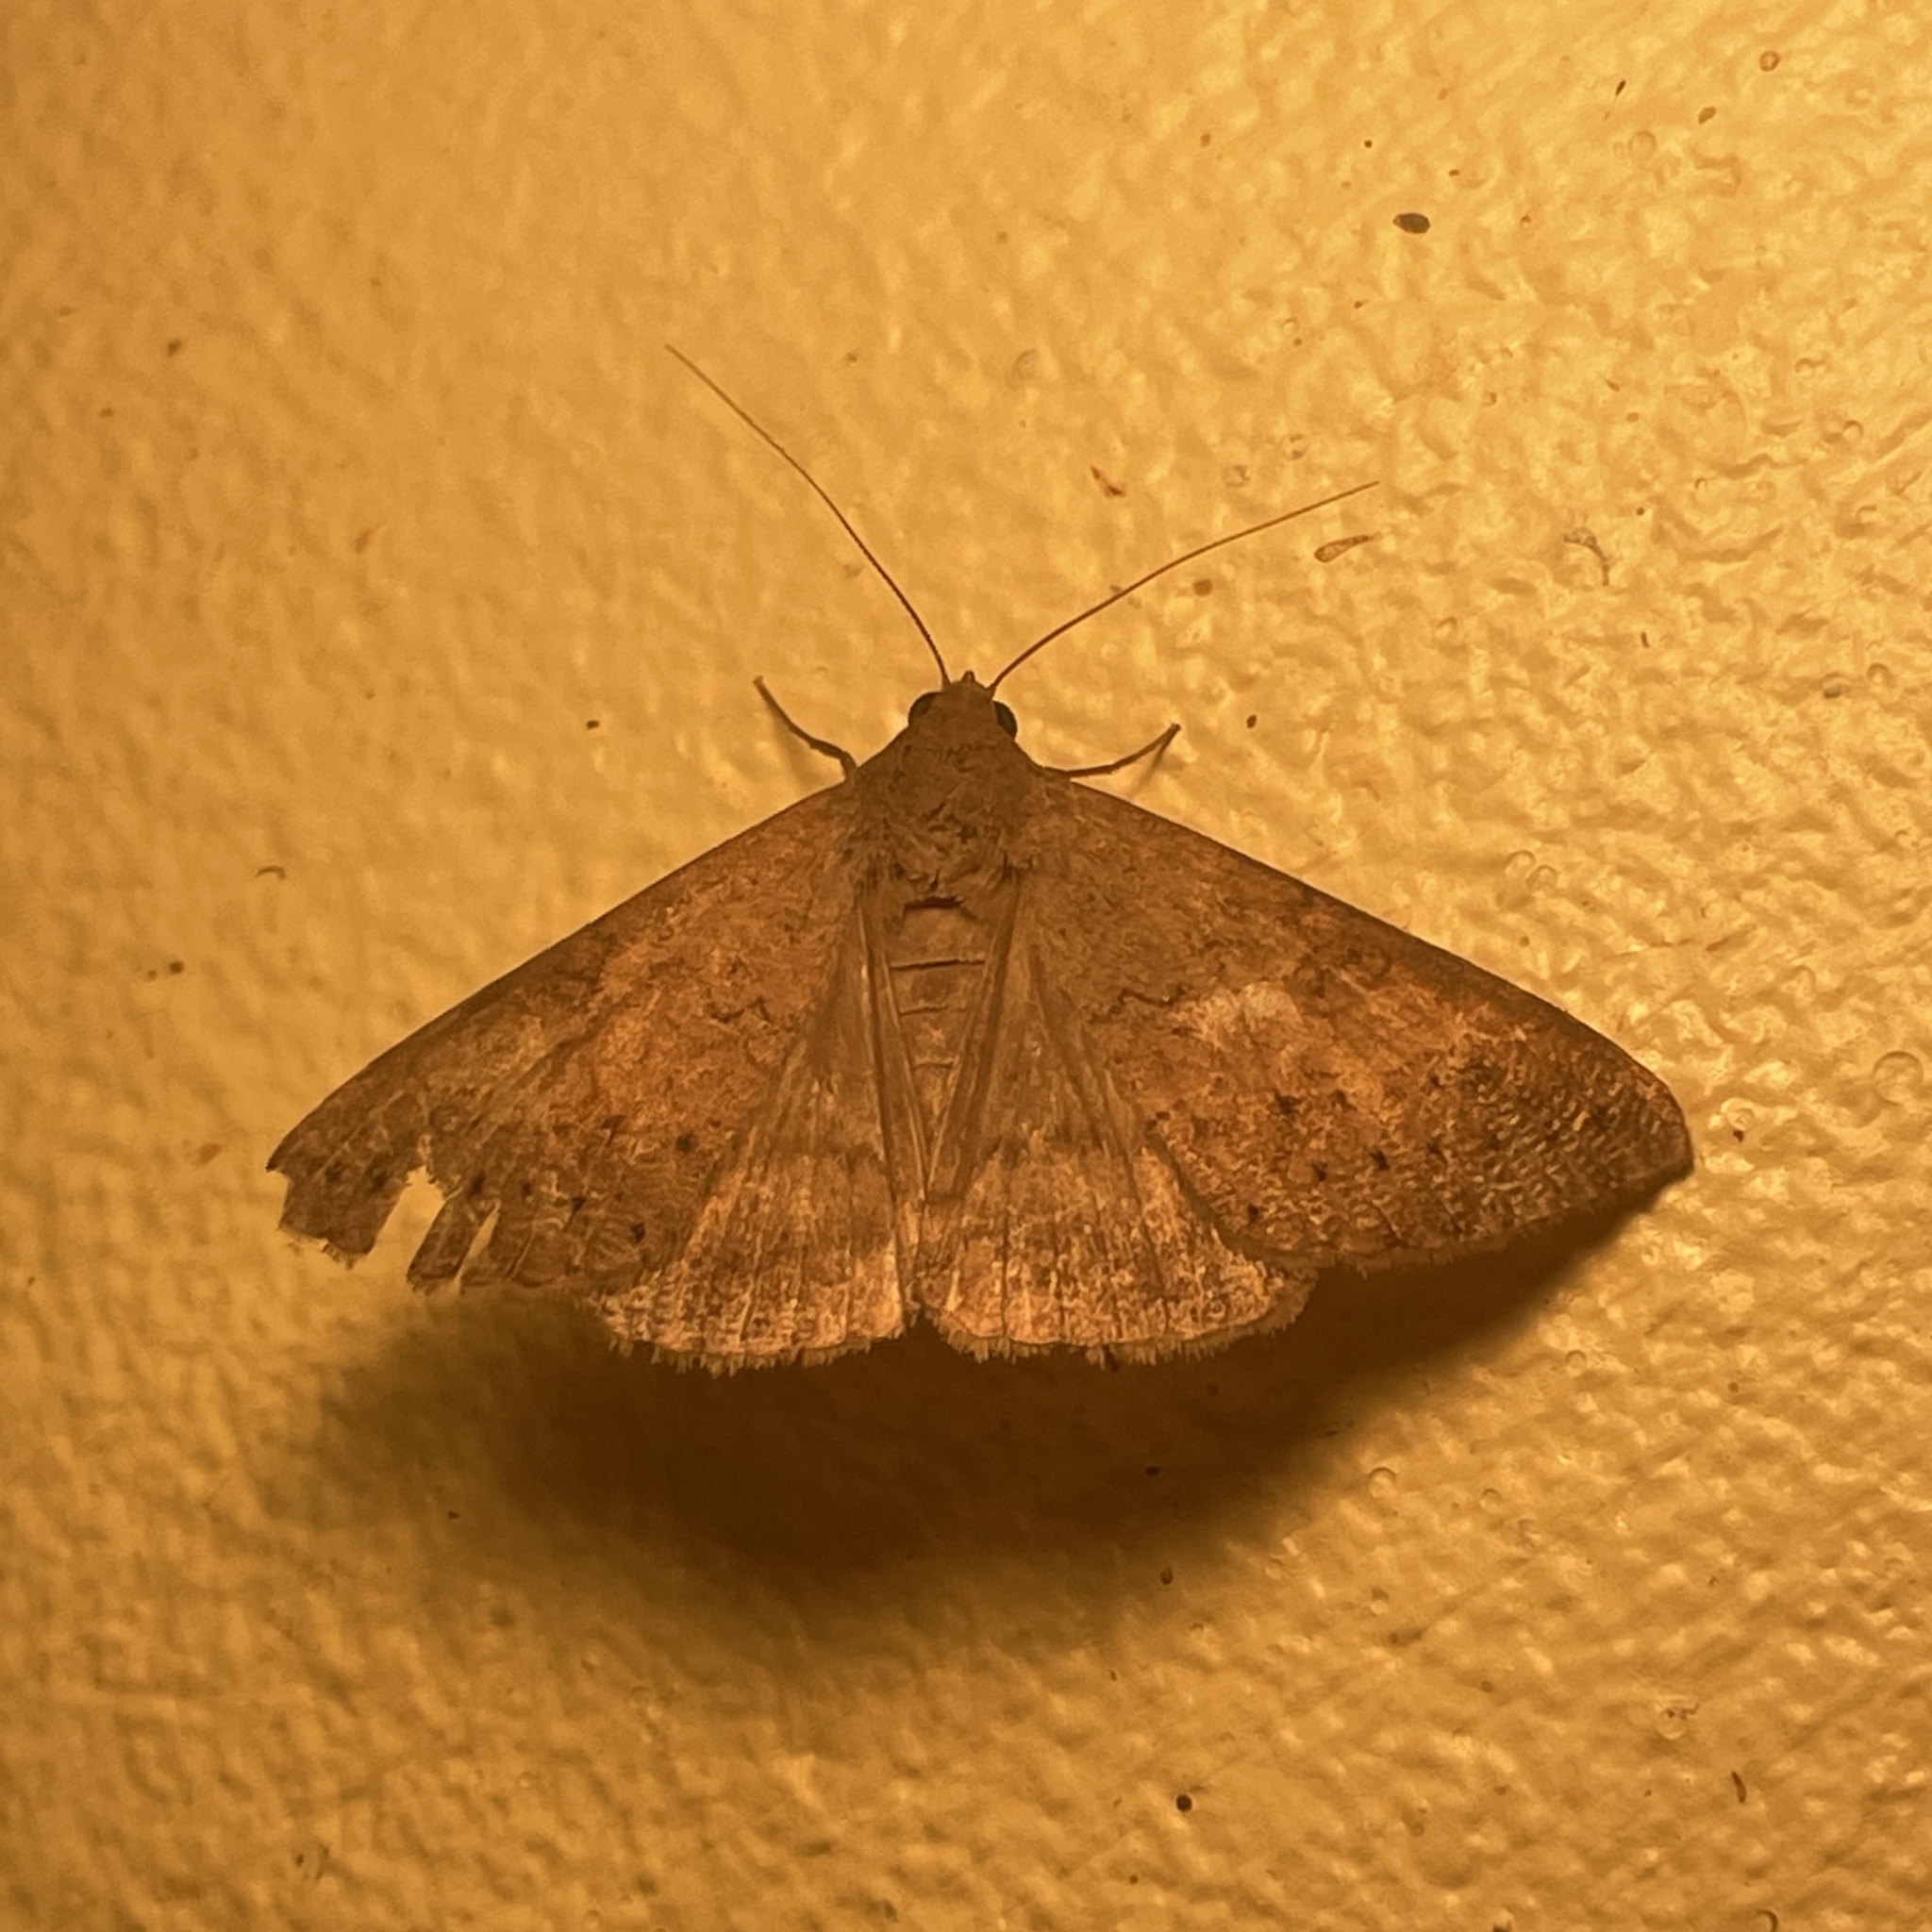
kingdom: Animalia
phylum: Arthropoda
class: Insecta
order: Lepidoptera
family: Erebidae
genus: Mocis
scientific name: Mocis latipes
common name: Striped grass looper
